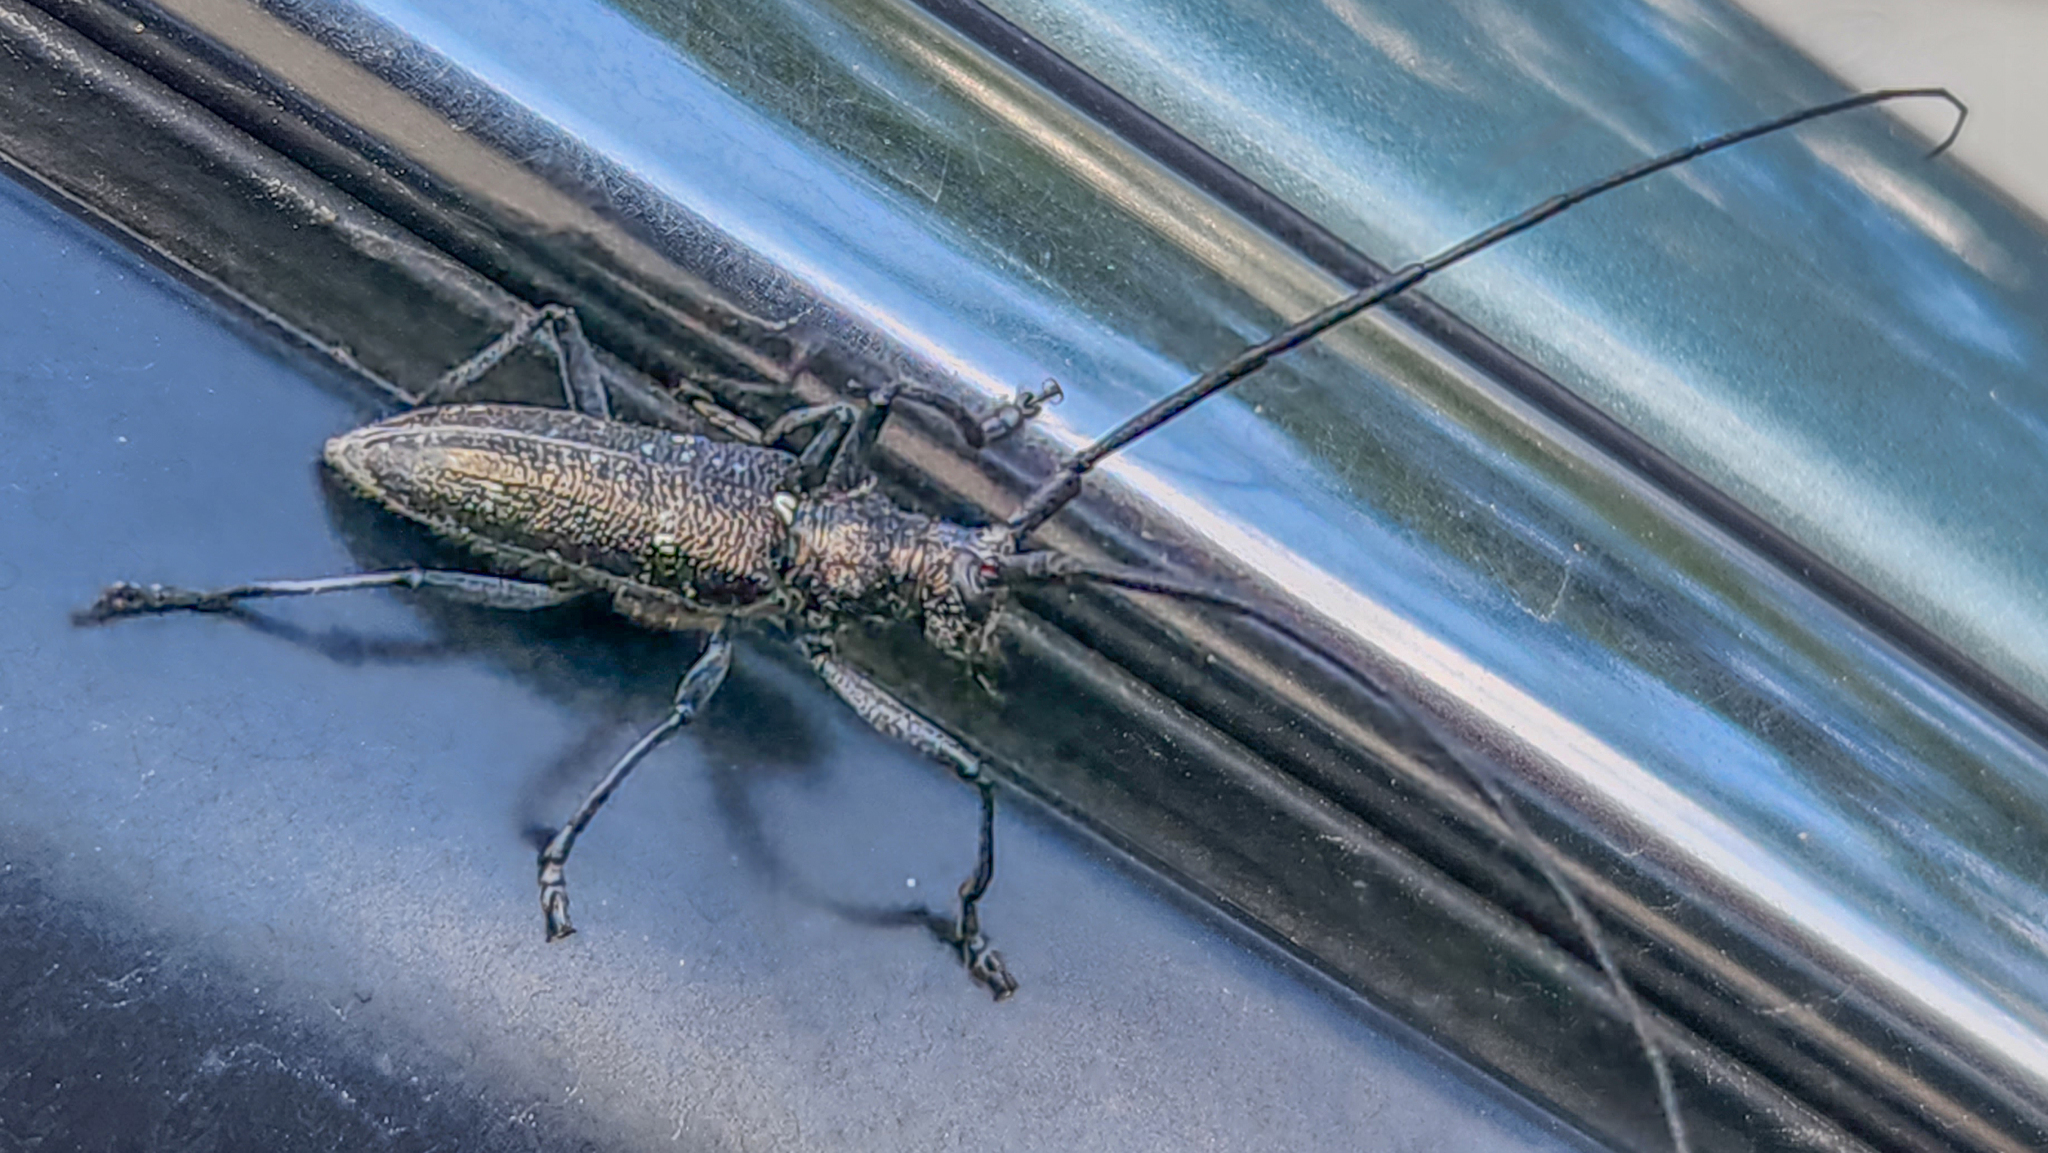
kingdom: Animalia
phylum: Arthropoda
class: Insecta
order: Coleoptera
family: Cerambycidae
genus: Monochamus
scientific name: Monochamus scutellatus
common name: White-spotted sawyer beetle
